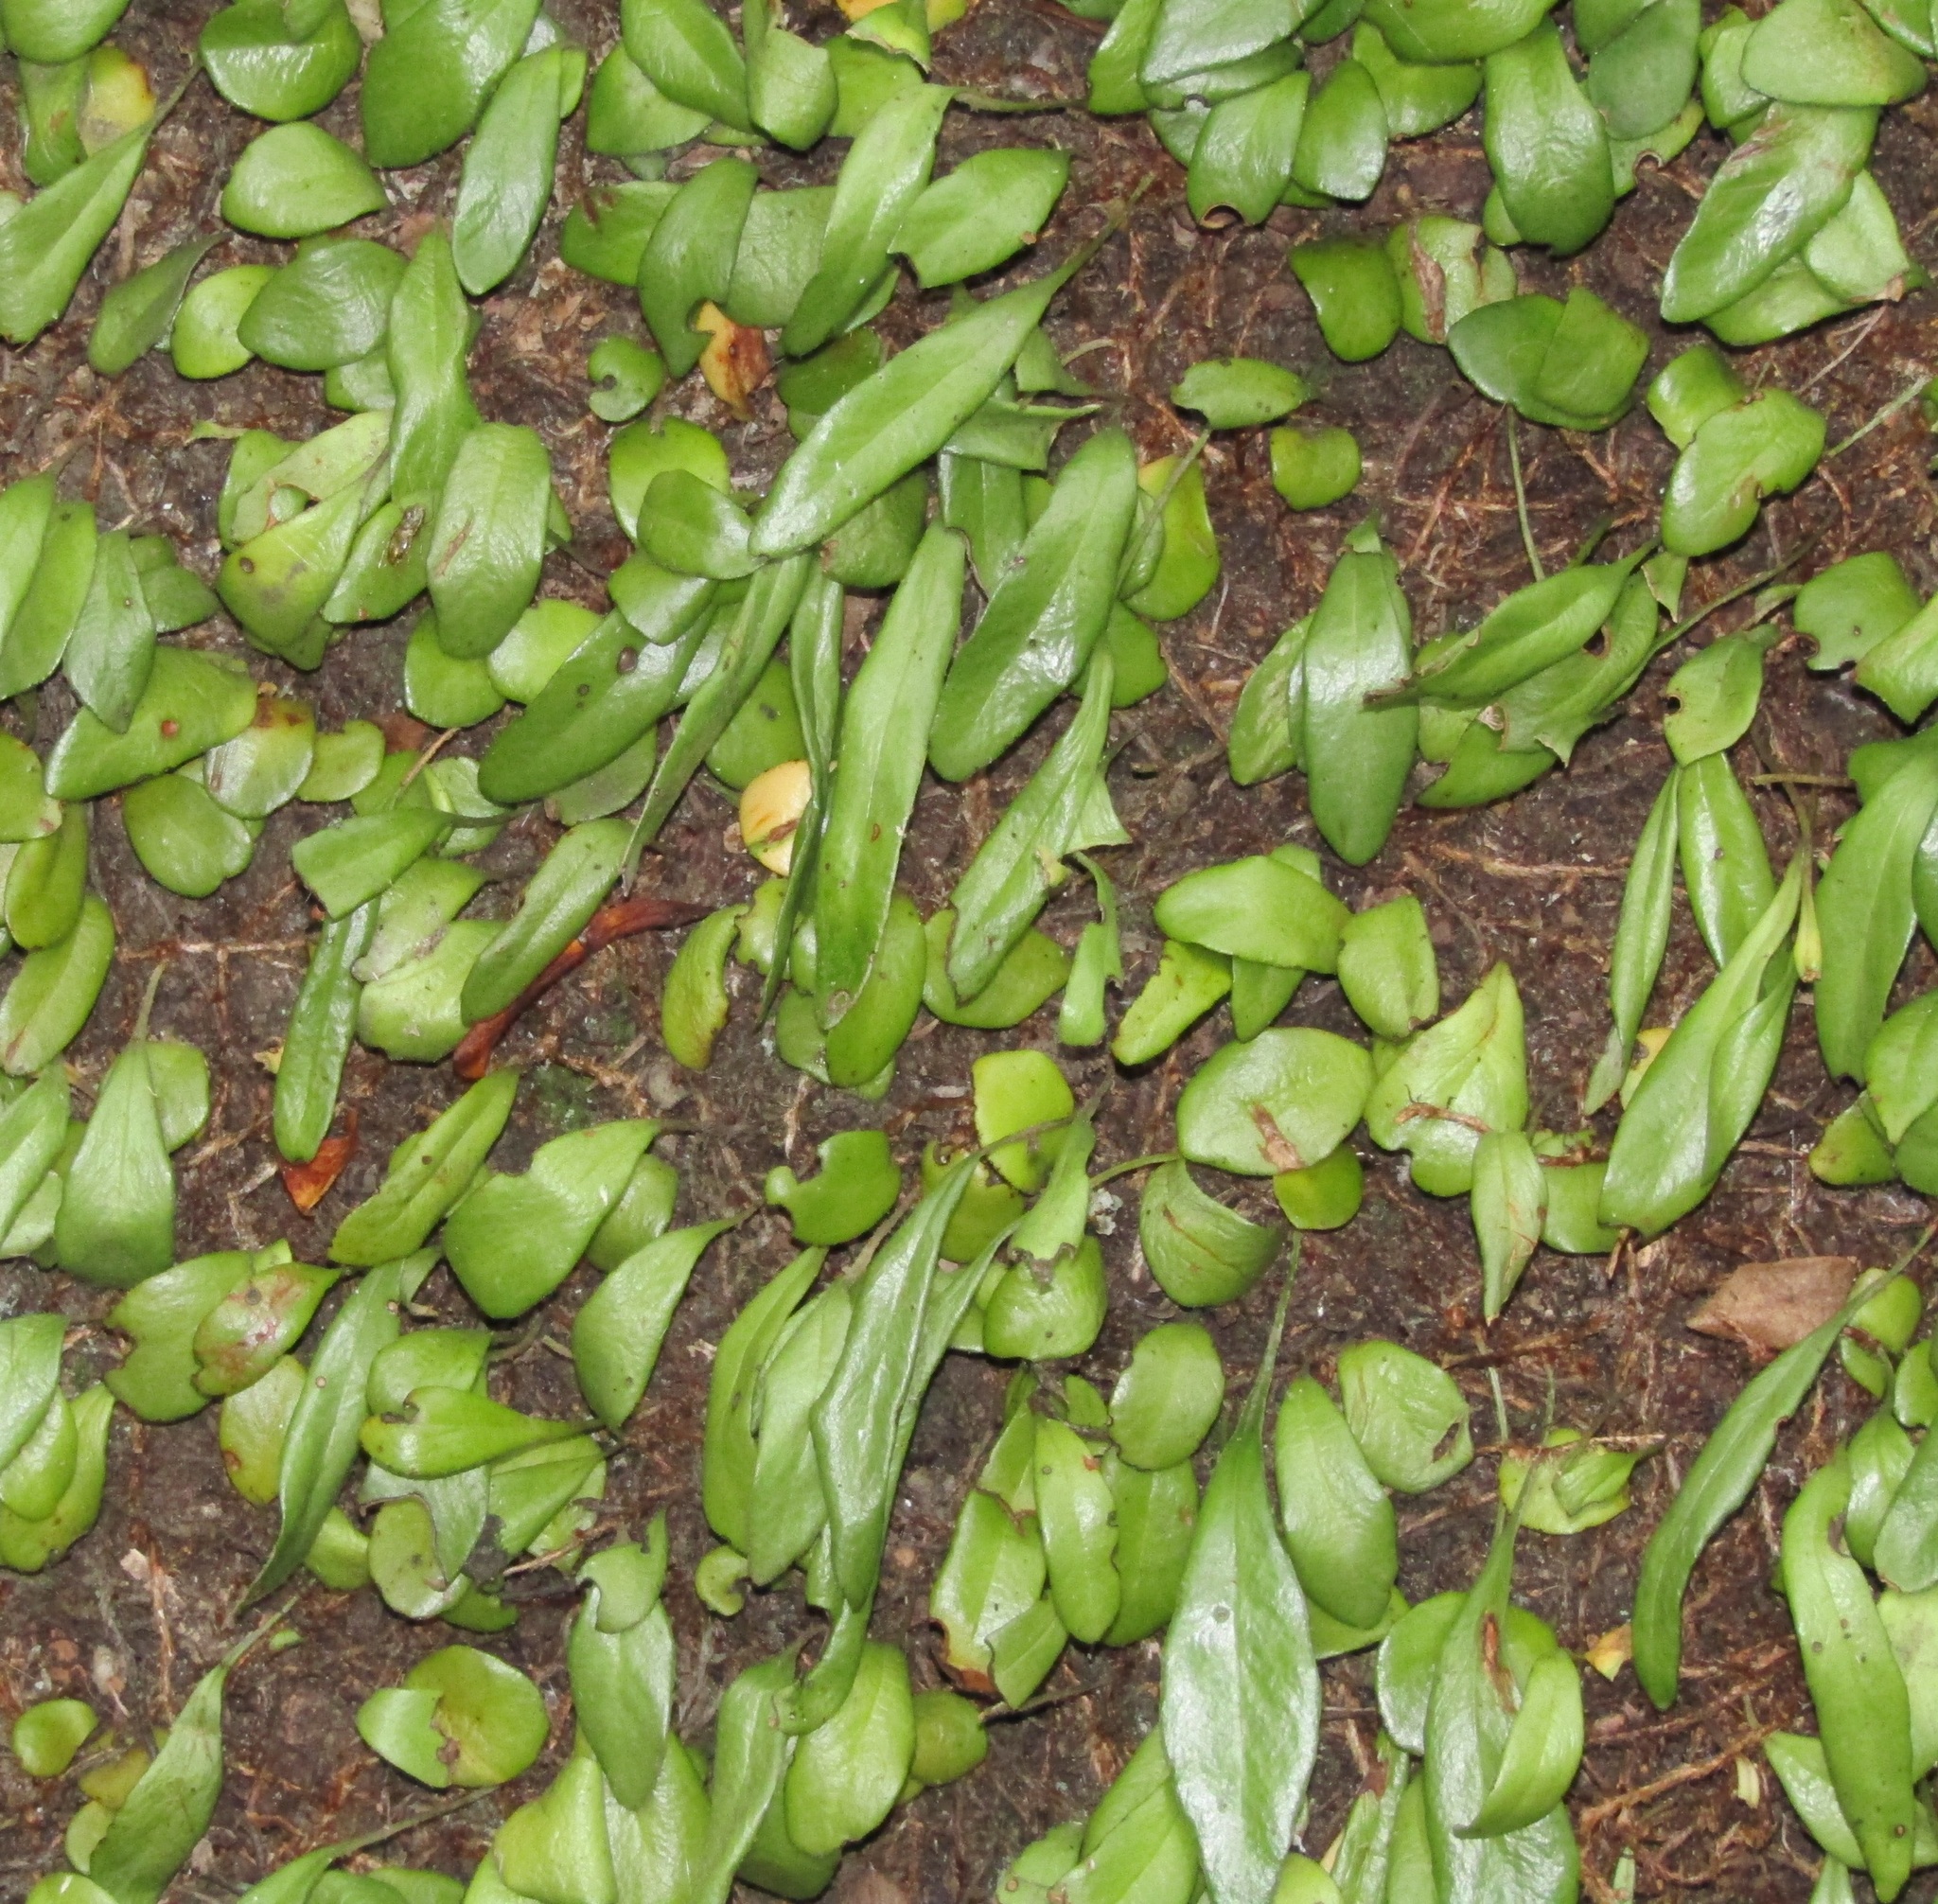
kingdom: Plantae
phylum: Tracheophyta
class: Polypodiopsida
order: Polypodiales
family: Polypodiaceae
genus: Pyrrosia
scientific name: Pyrrosia eleagnifolia
